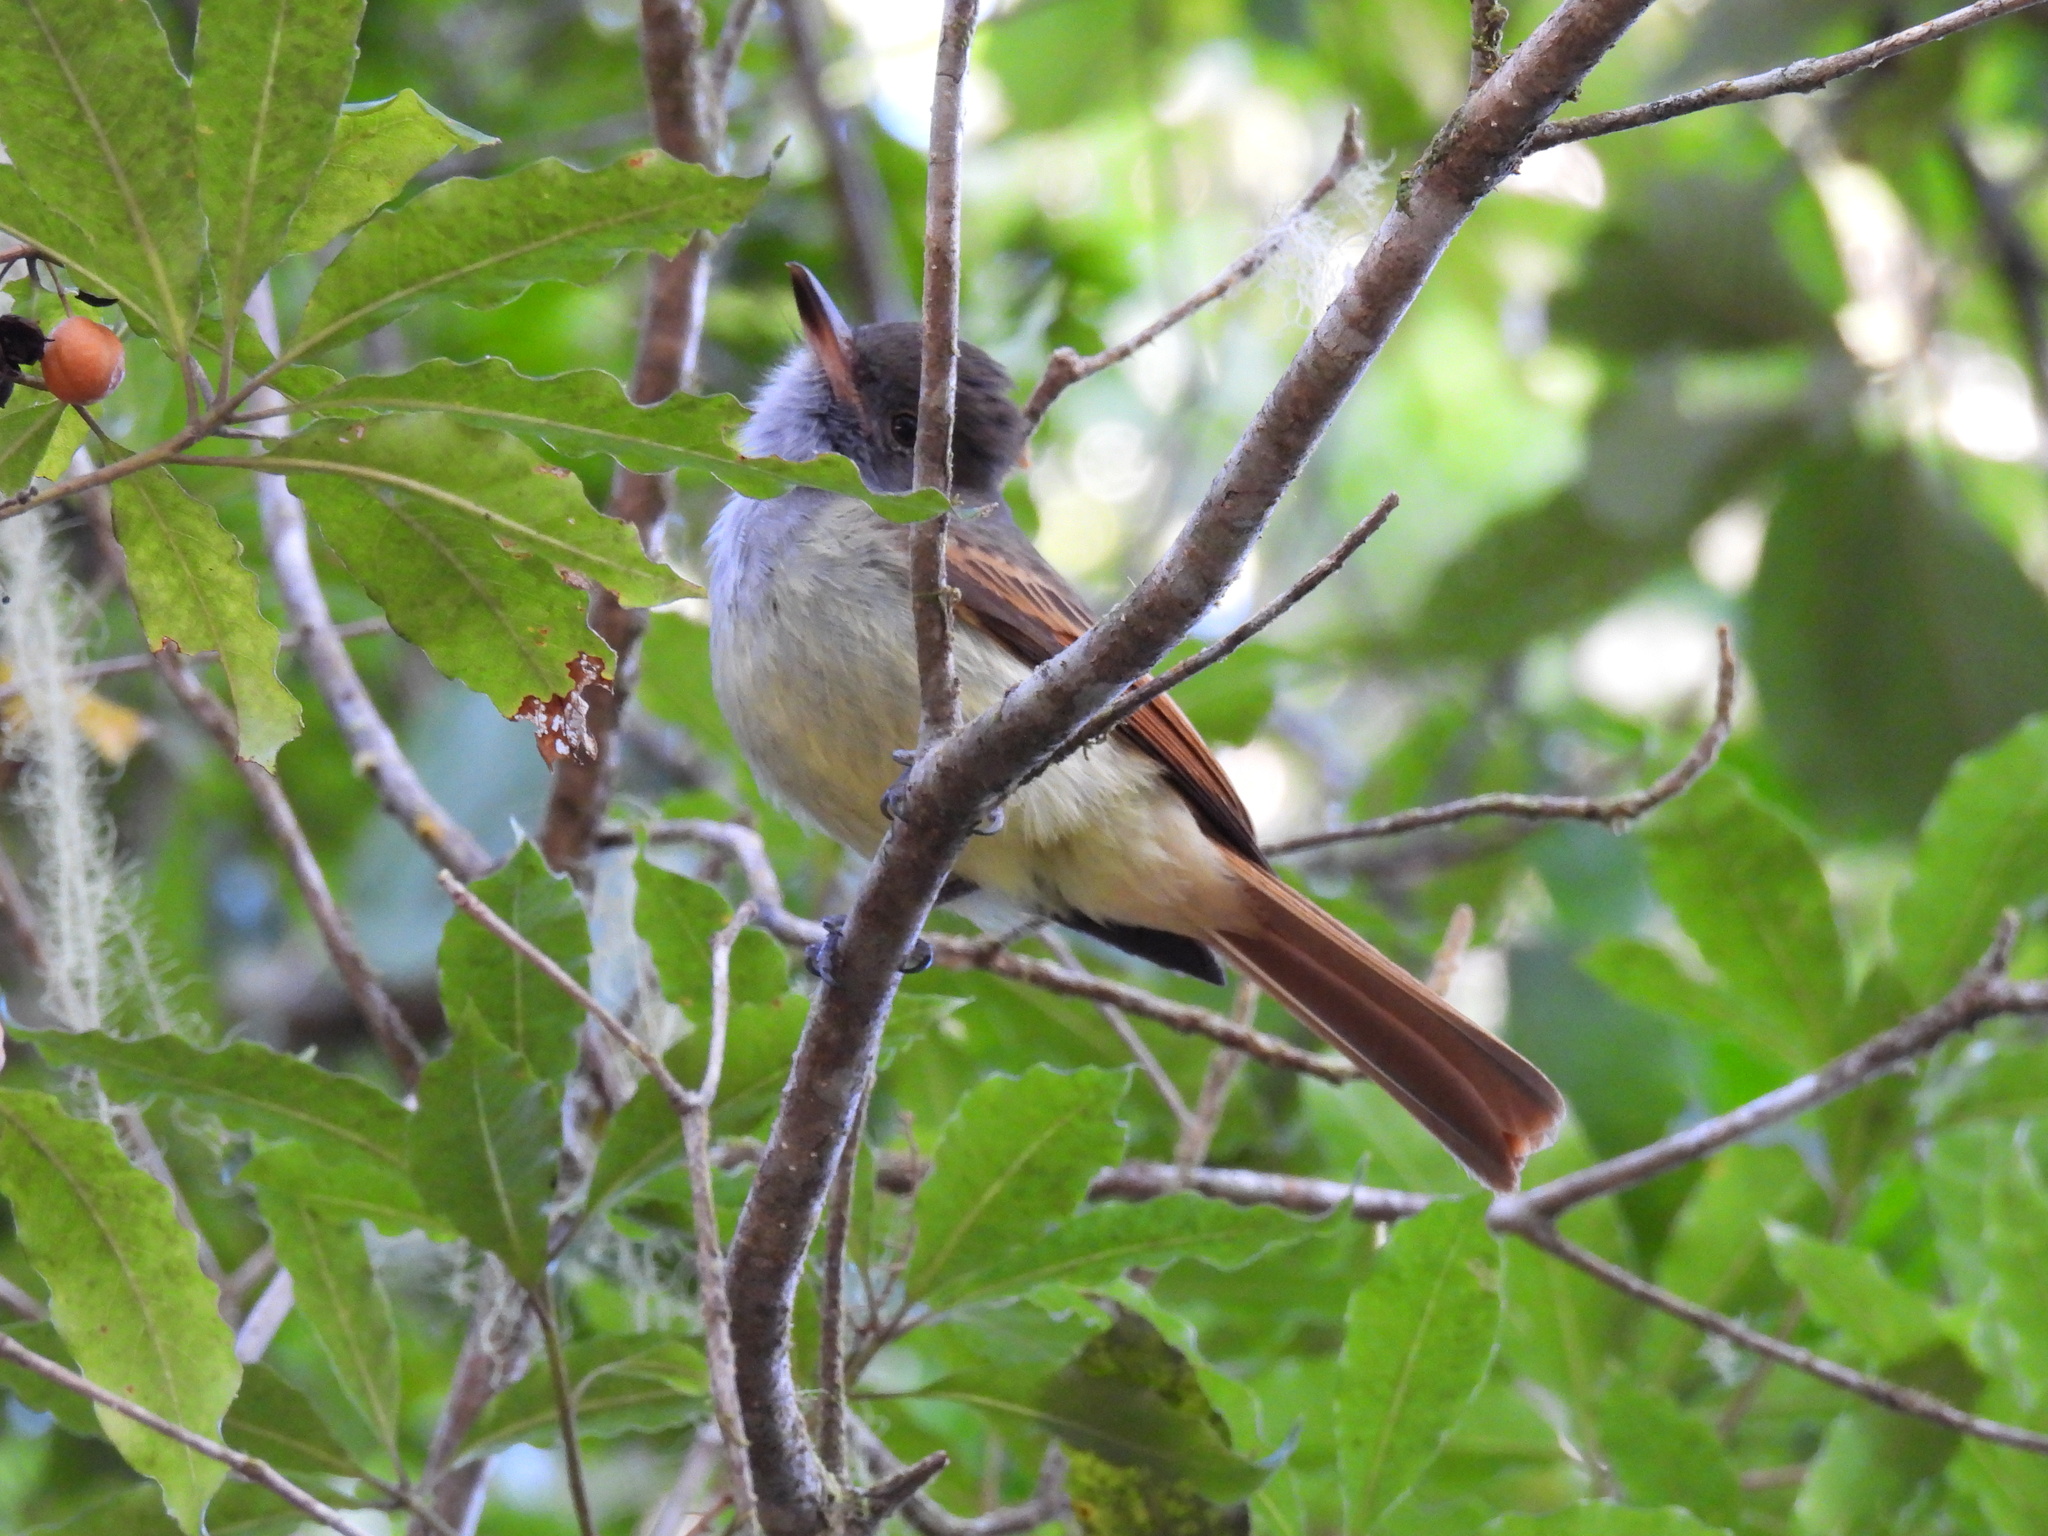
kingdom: Animalia
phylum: Chordata
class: Aves
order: Passeriformes
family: Tyrannidae
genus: Myiarchus
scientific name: Myiarchus validus
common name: Rufous-tailed flycatcher
